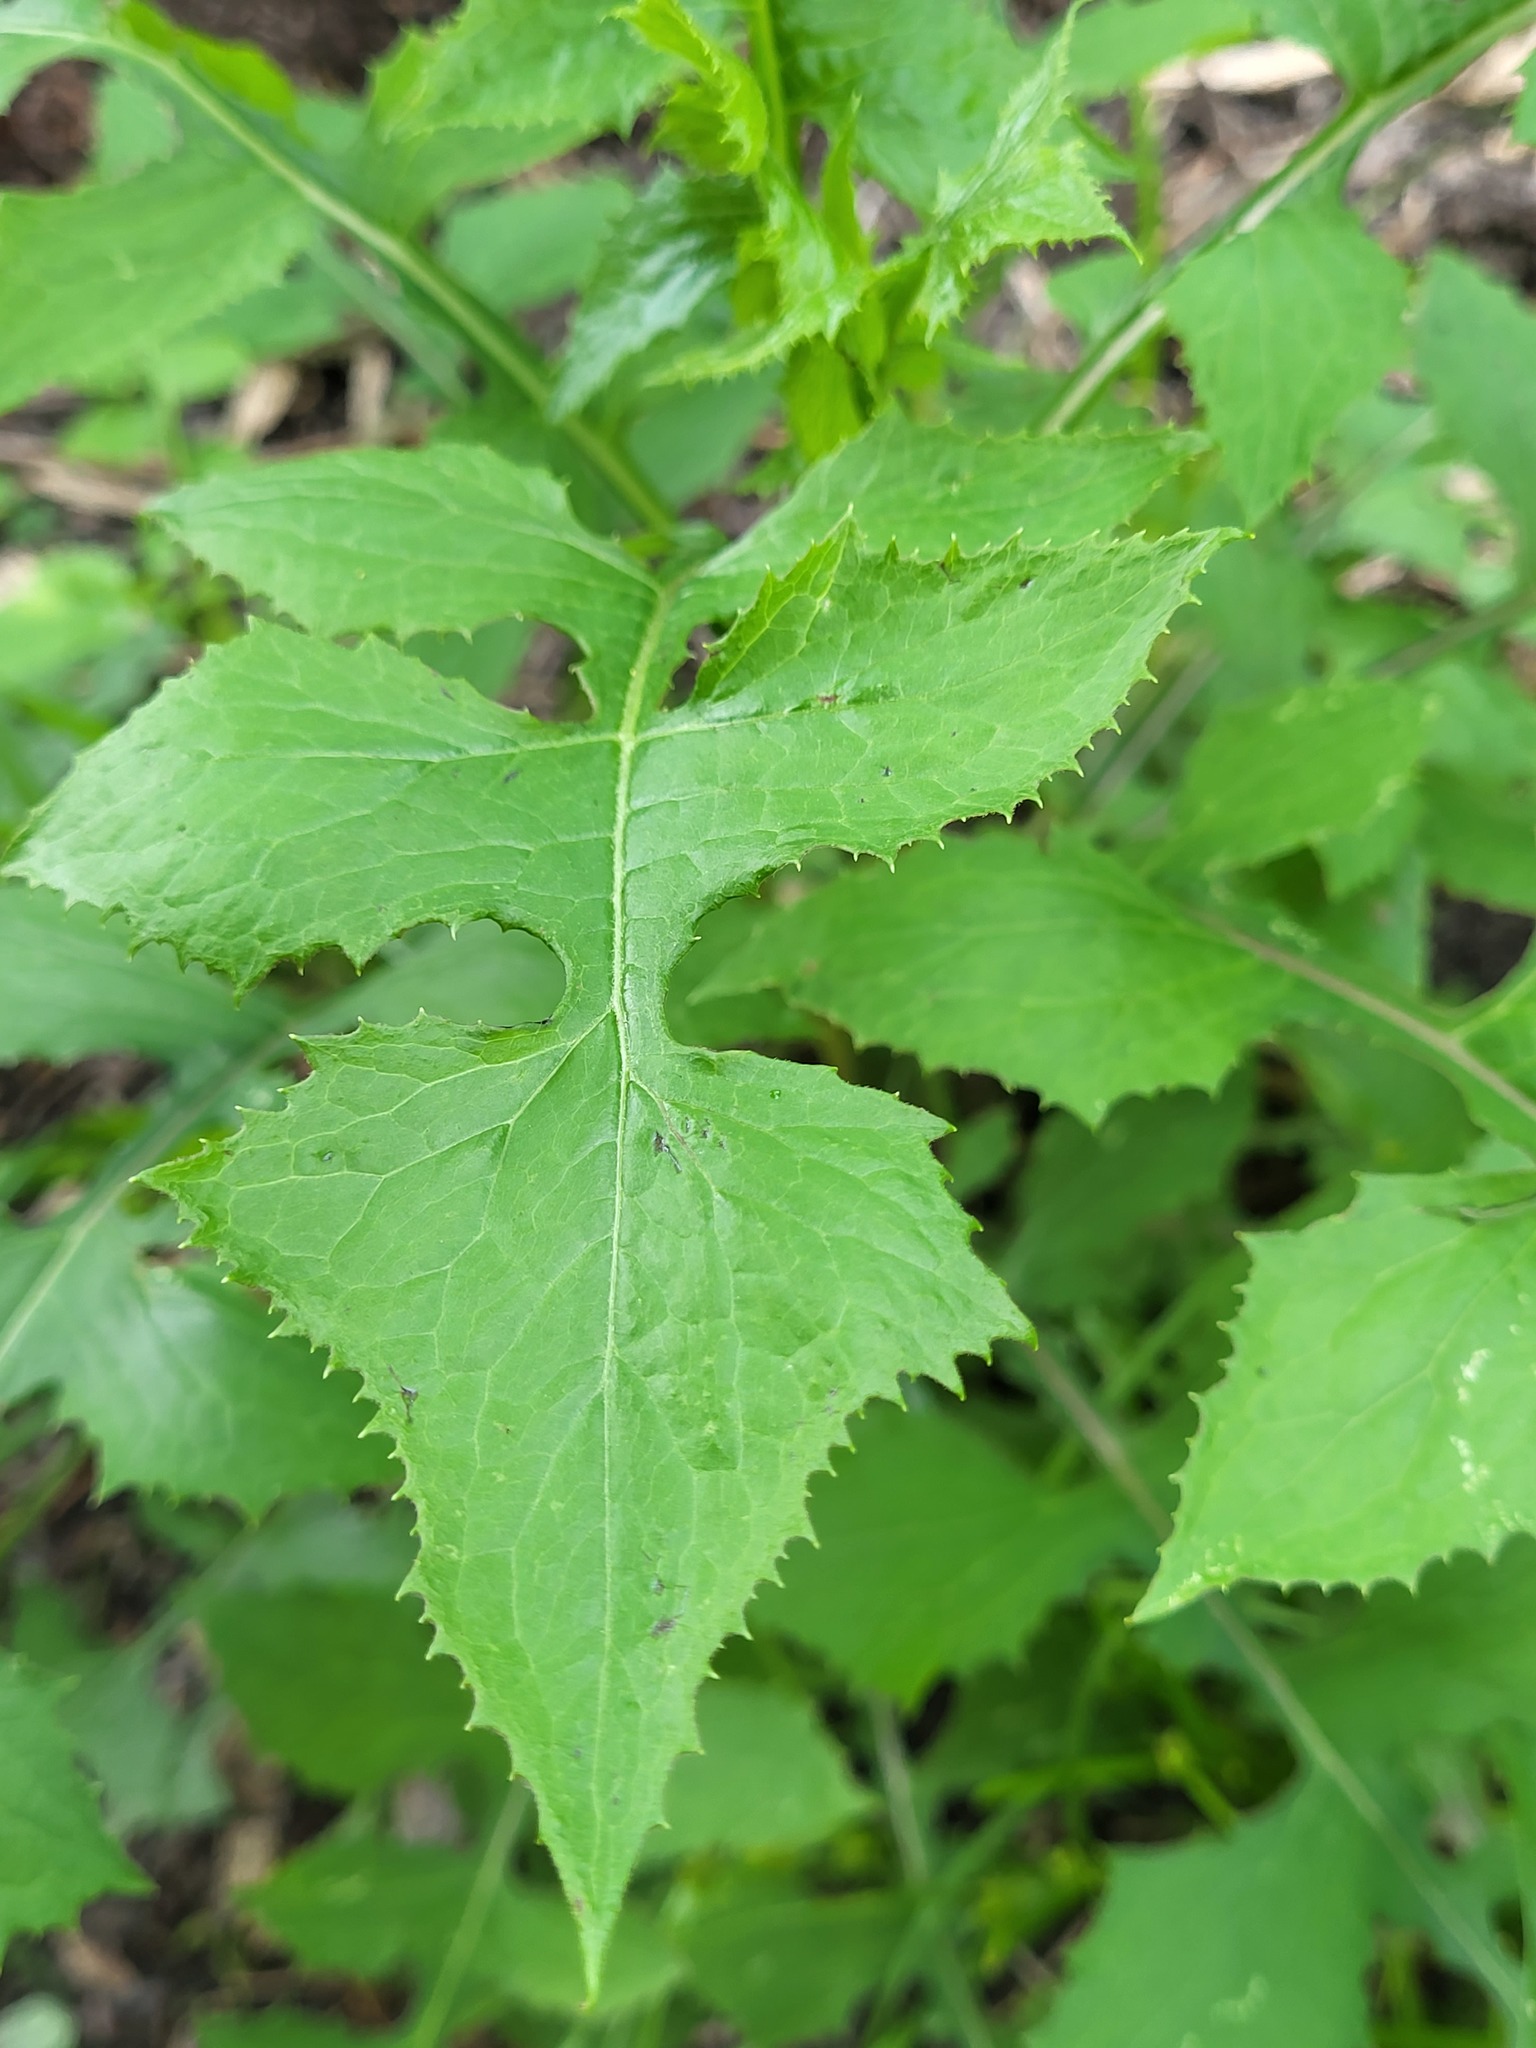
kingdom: Plantae
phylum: Tracheophyta
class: Magnoliopsida
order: Asterales
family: Asteraceae
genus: Lactuca
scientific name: Lactuca floridana
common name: Woodland lettuce
